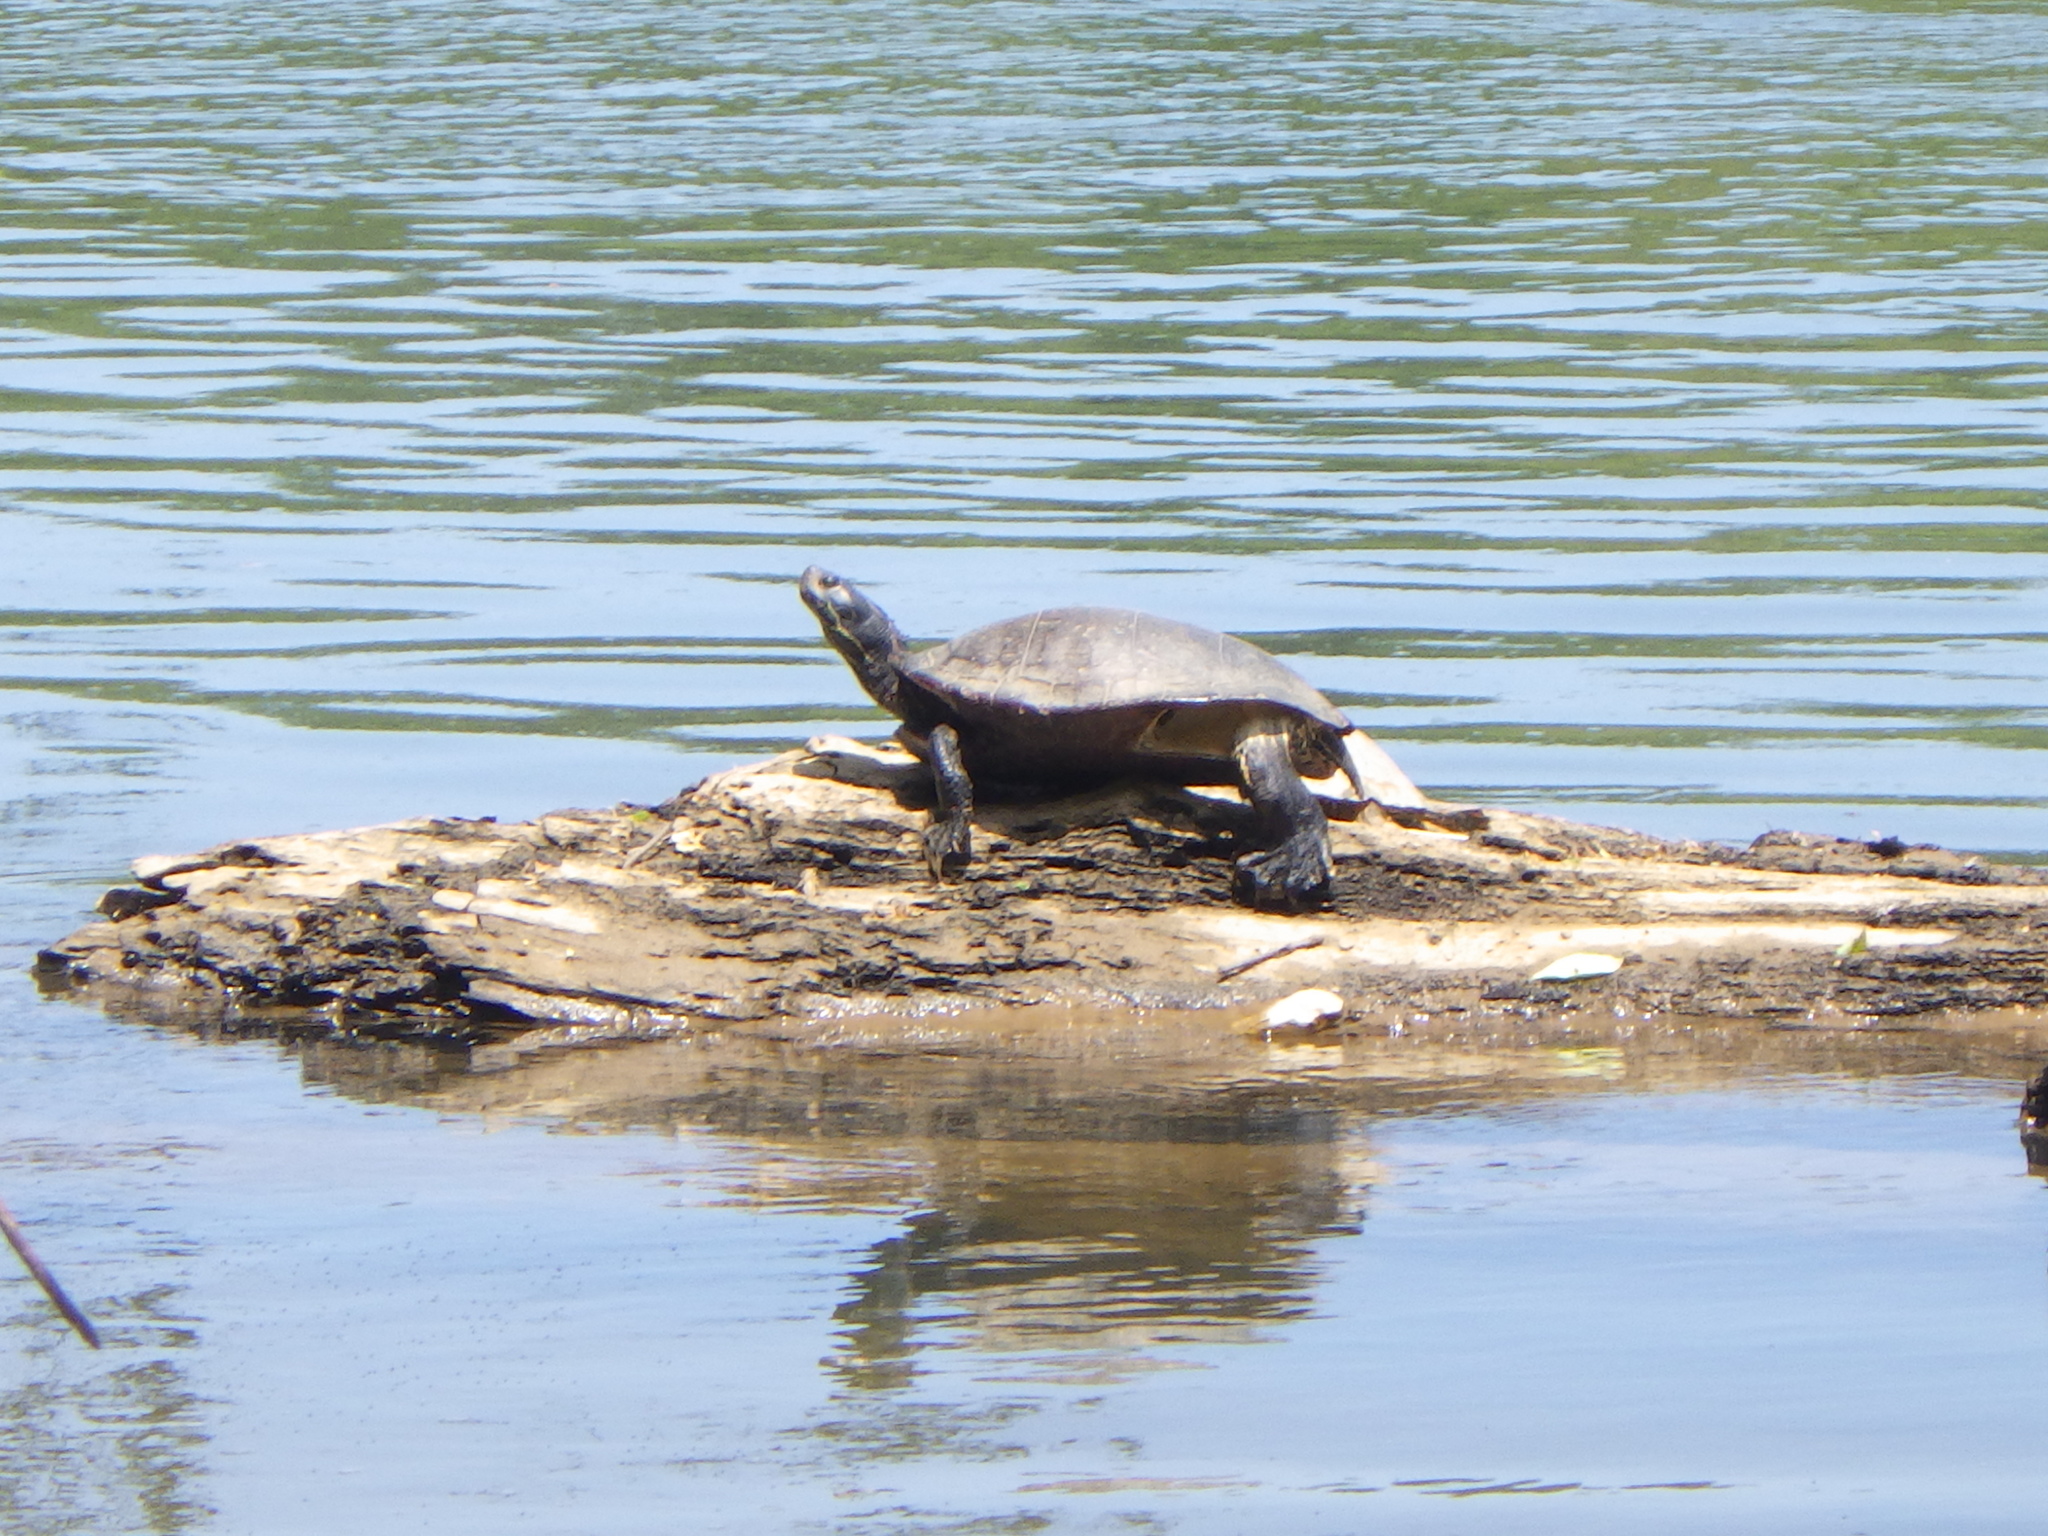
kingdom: Animalia
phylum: Chordata
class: Testudines
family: Emydidae
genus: Pseudemys
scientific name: Pseudemys rubriventris
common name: American red-bellied turtle
